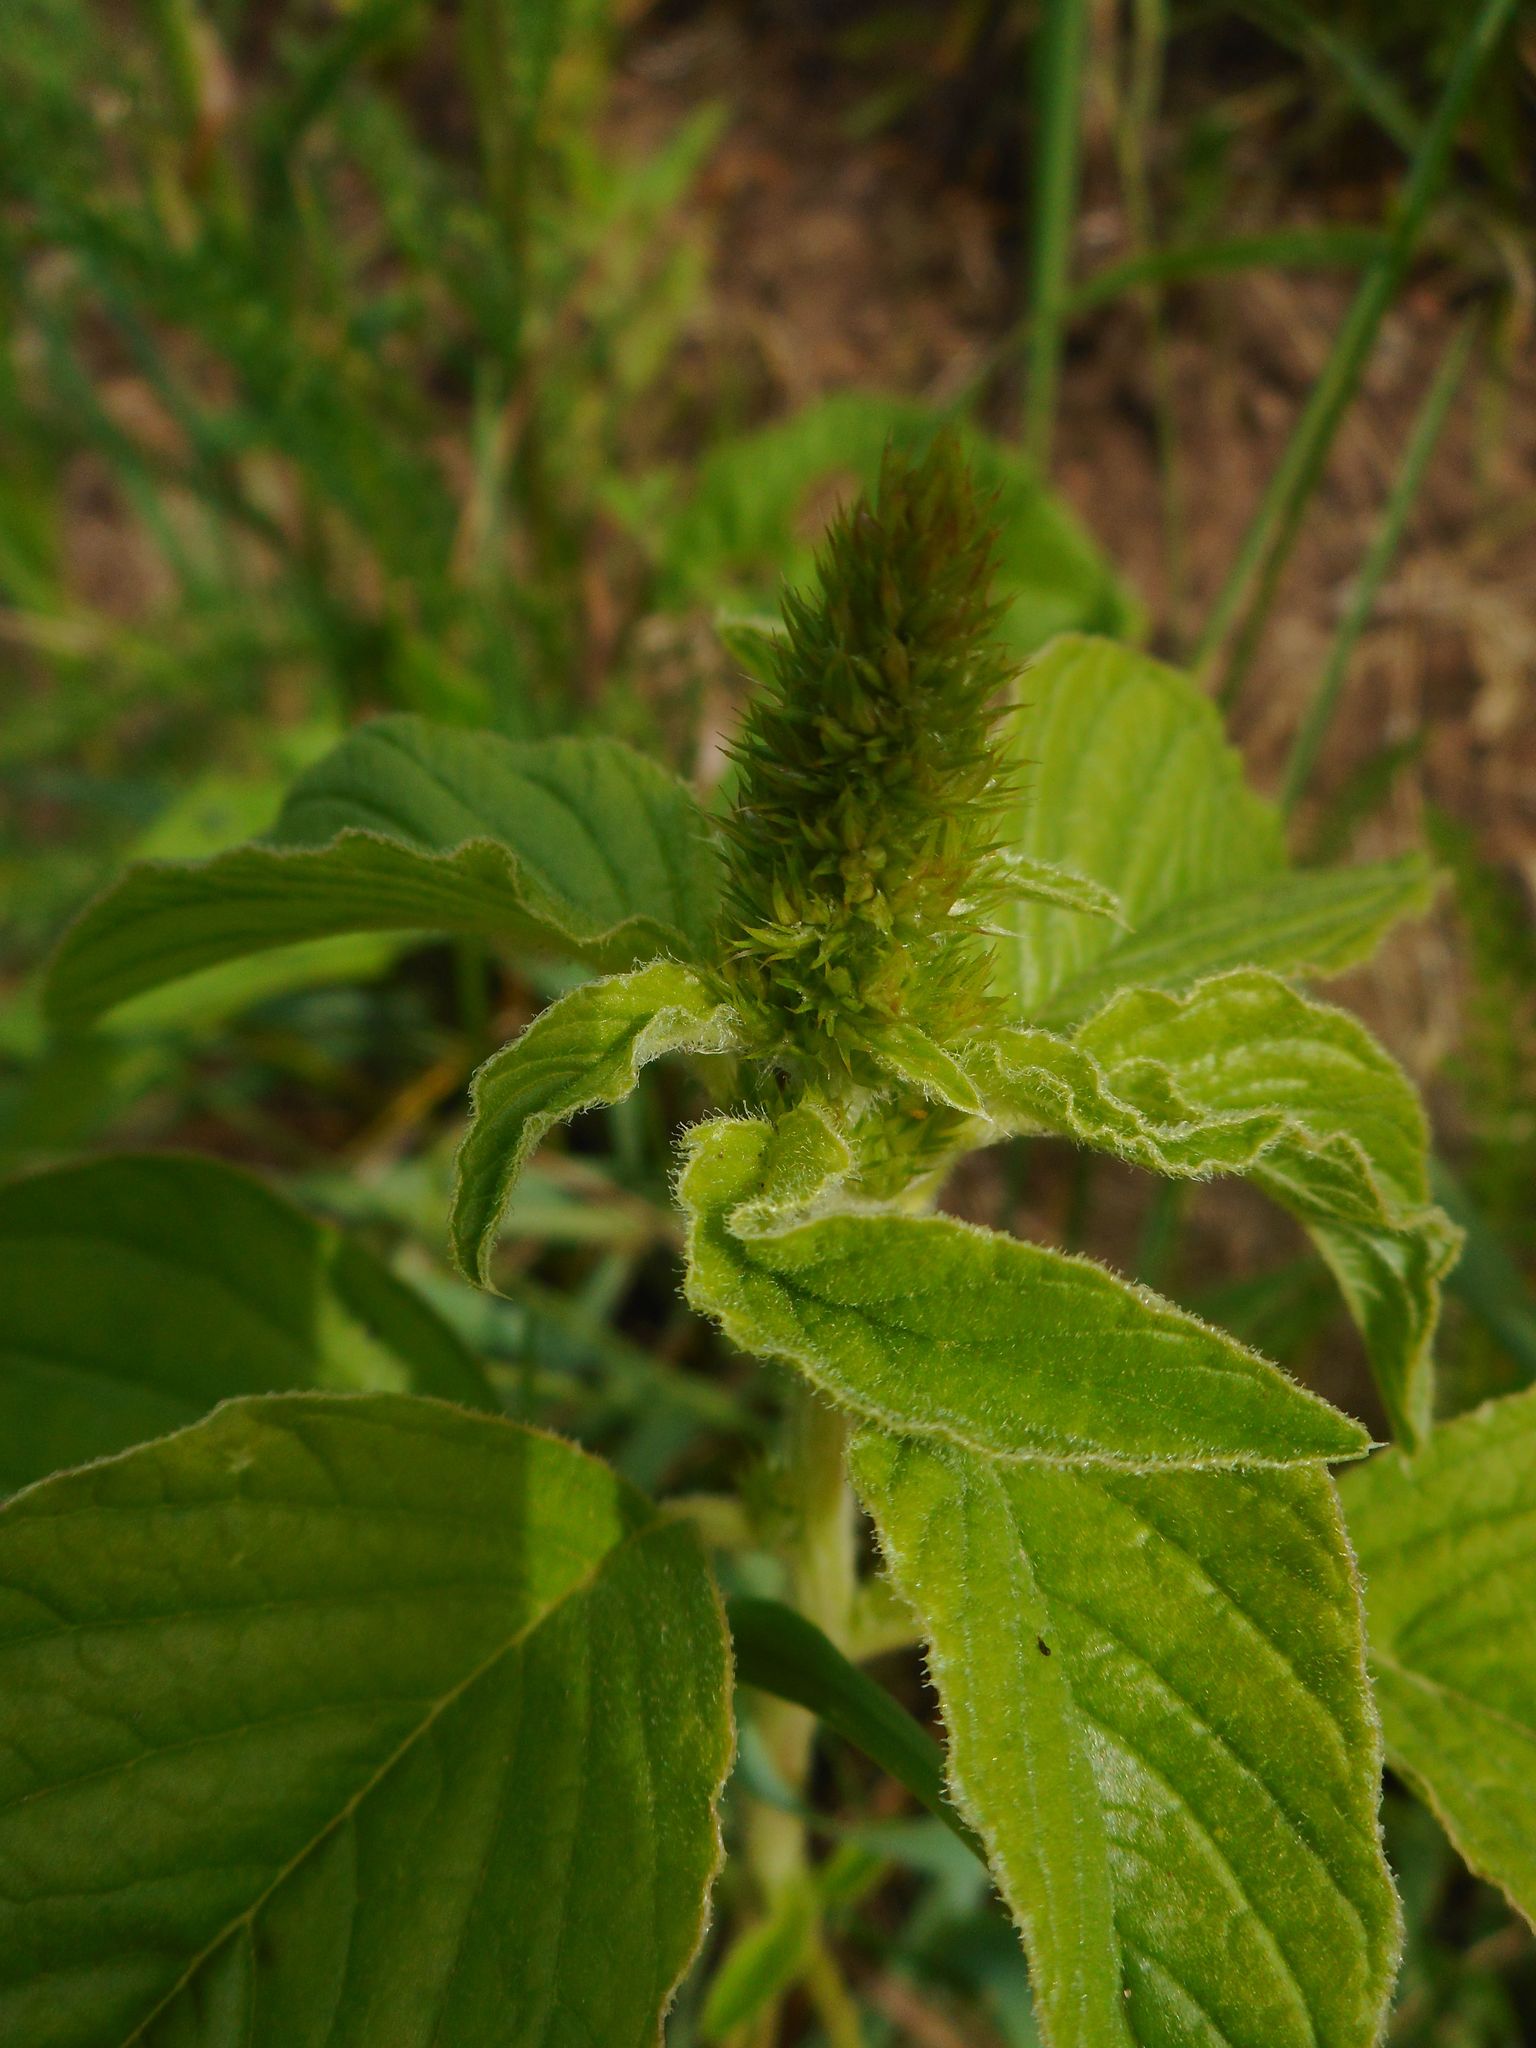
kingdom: Plantae
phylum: Tracheophyta
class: Magnoliopsida
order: Caryophyllales
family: Amaranthaceae
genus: Amaranthus
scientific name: Amaranthus retroflexus
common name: Redroot amaranth
